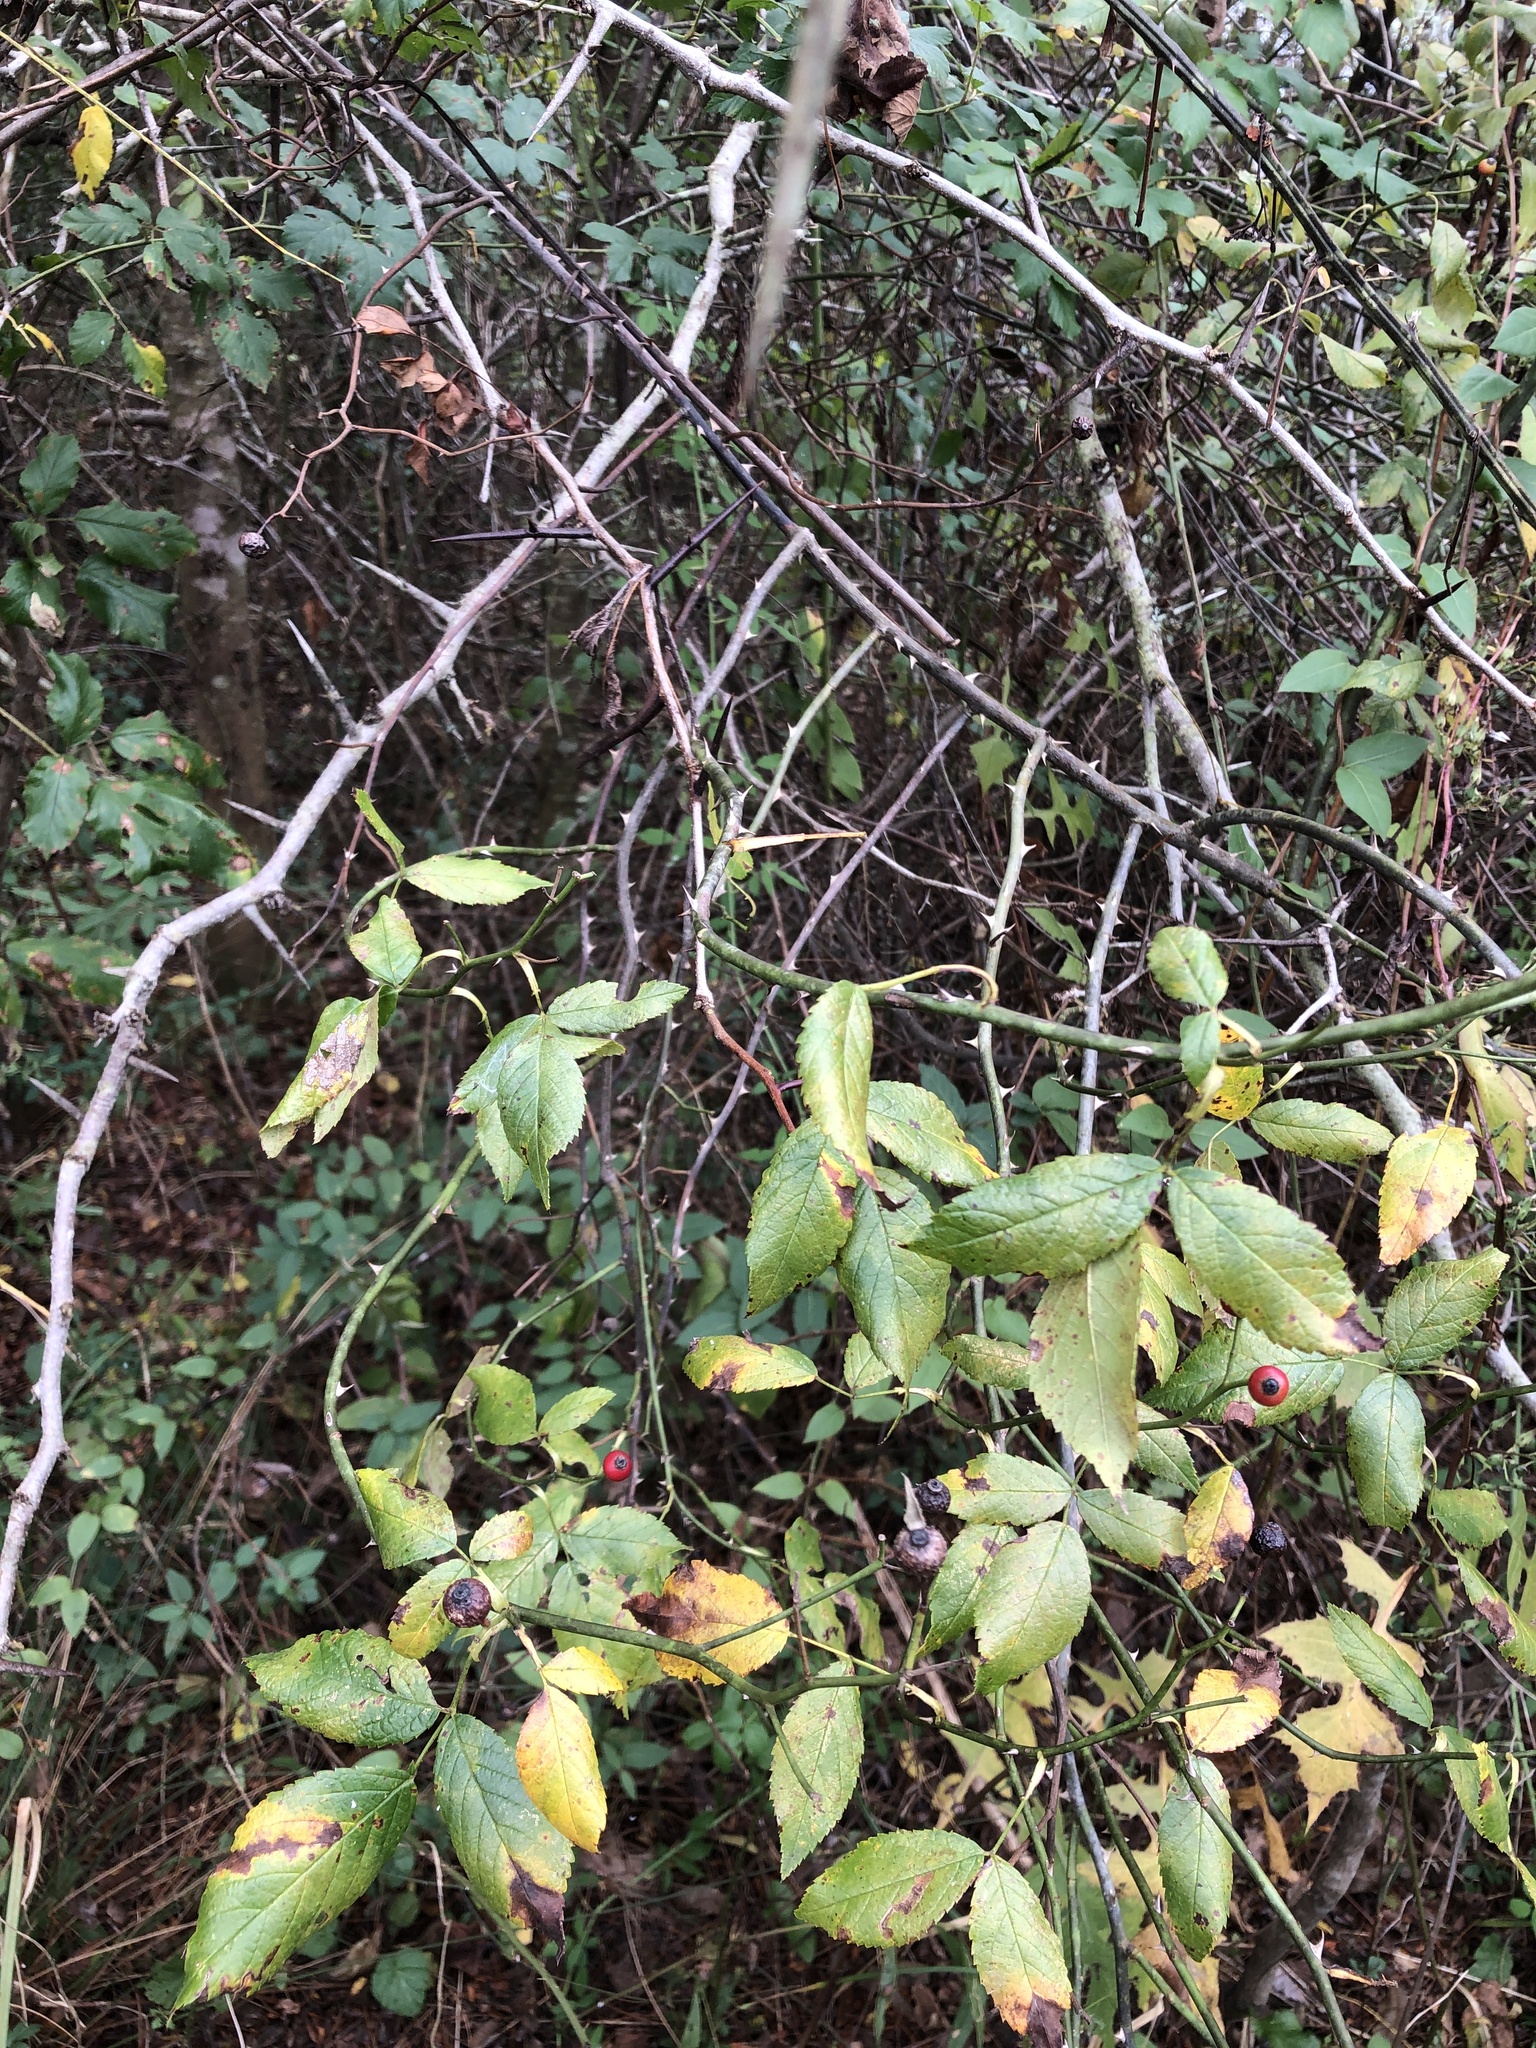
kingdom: Plantae
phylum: Tracheophyta
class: Magnoliopsida
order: Rosales
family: Rosaceae
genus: Rosa
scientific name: Rosa setigera
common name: Prairie rose
